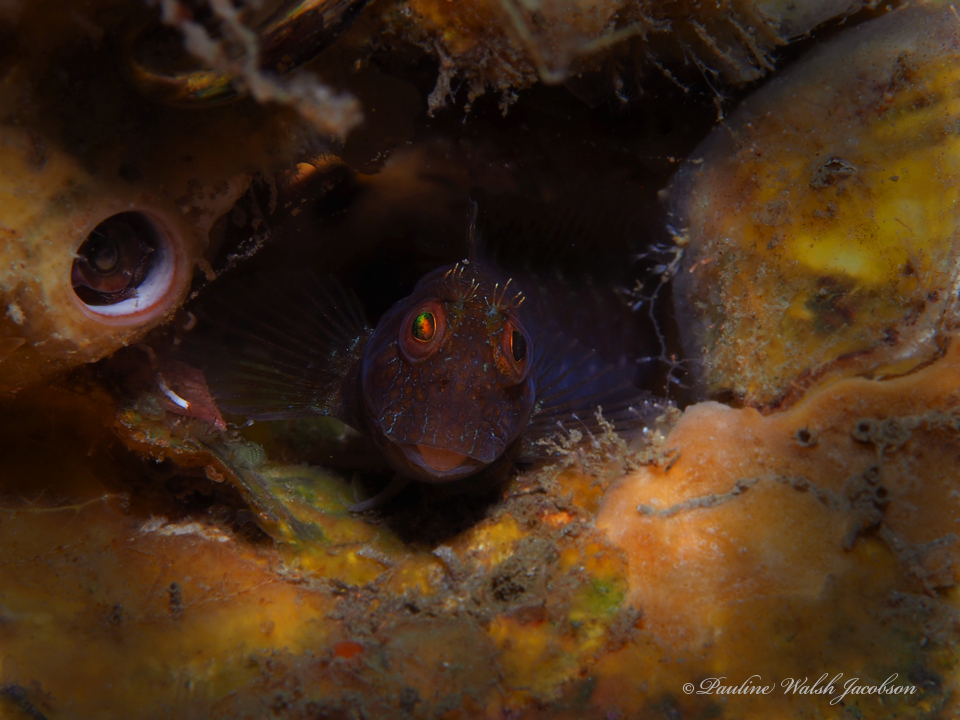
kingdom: Animalia
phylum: Chordata
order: Perciformes
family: Blenniidae
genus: Parablennius
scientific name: Parablennius marmoreus
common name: Seaweed blenny
